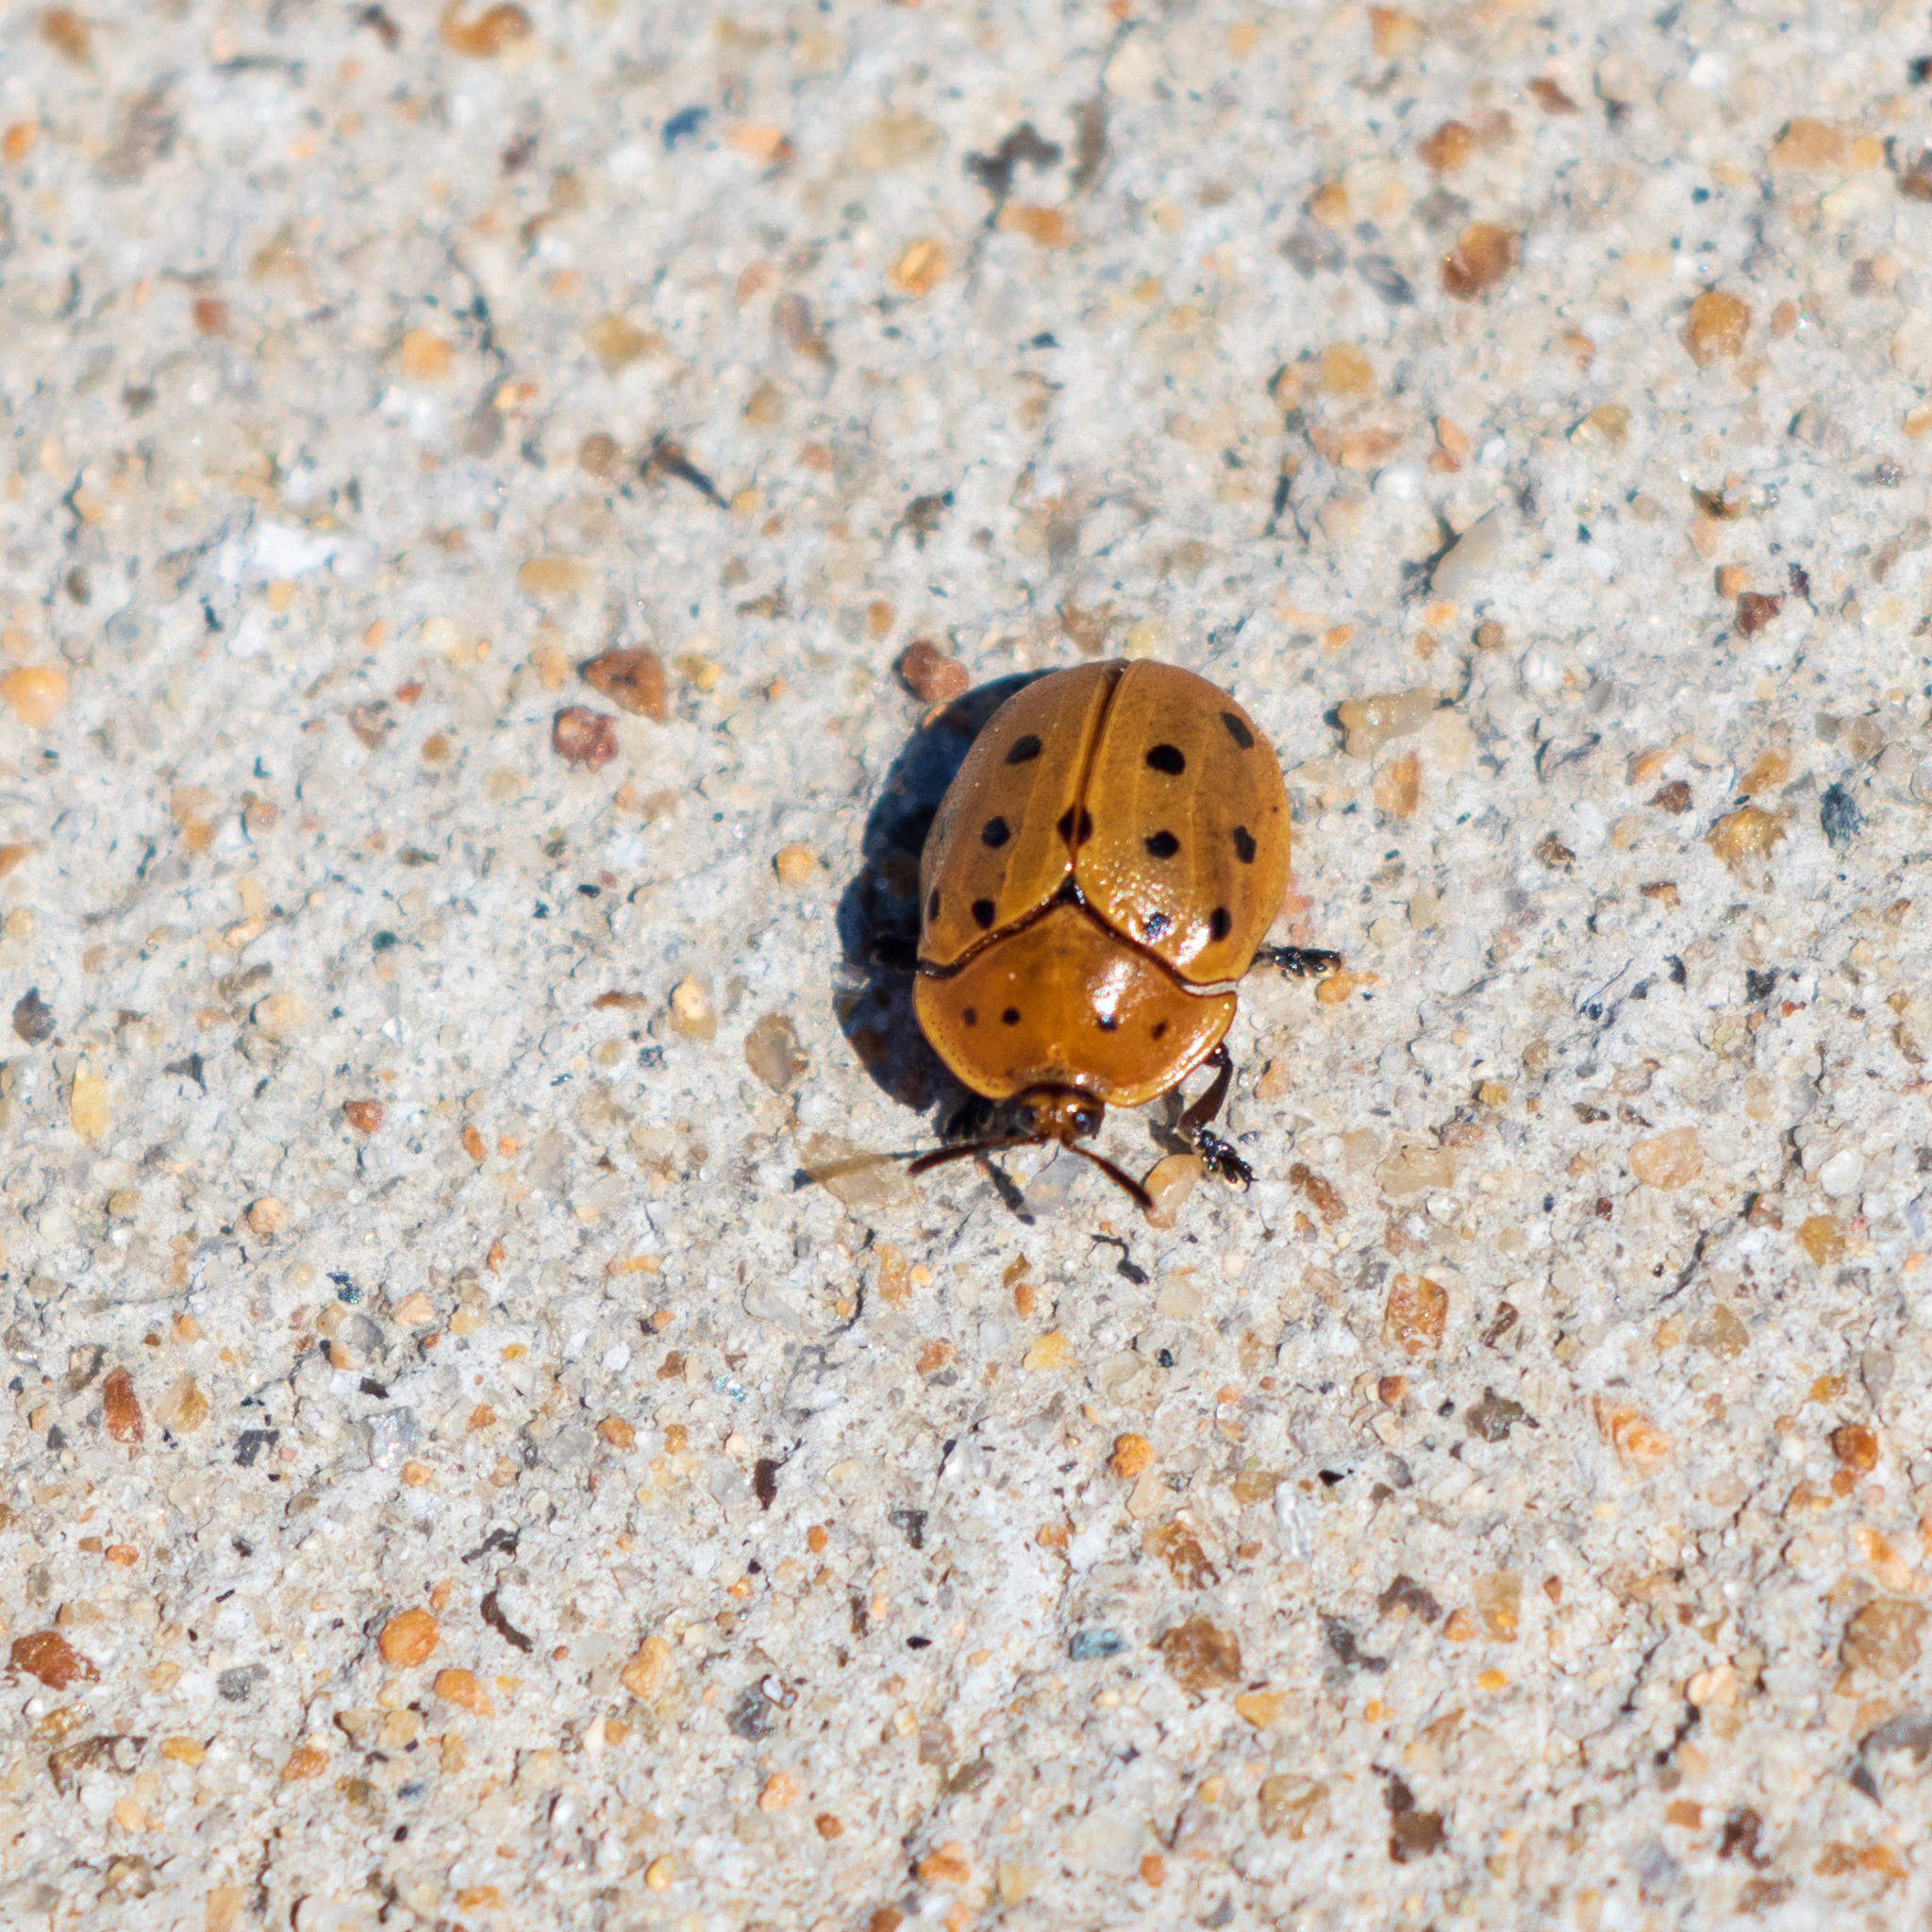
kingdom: Animalia
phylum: Arthropoda
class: Insecta
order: Coleoptera
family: Chrysomelidae
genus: Chelymorpha
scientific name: Chelymorpha cassidea
